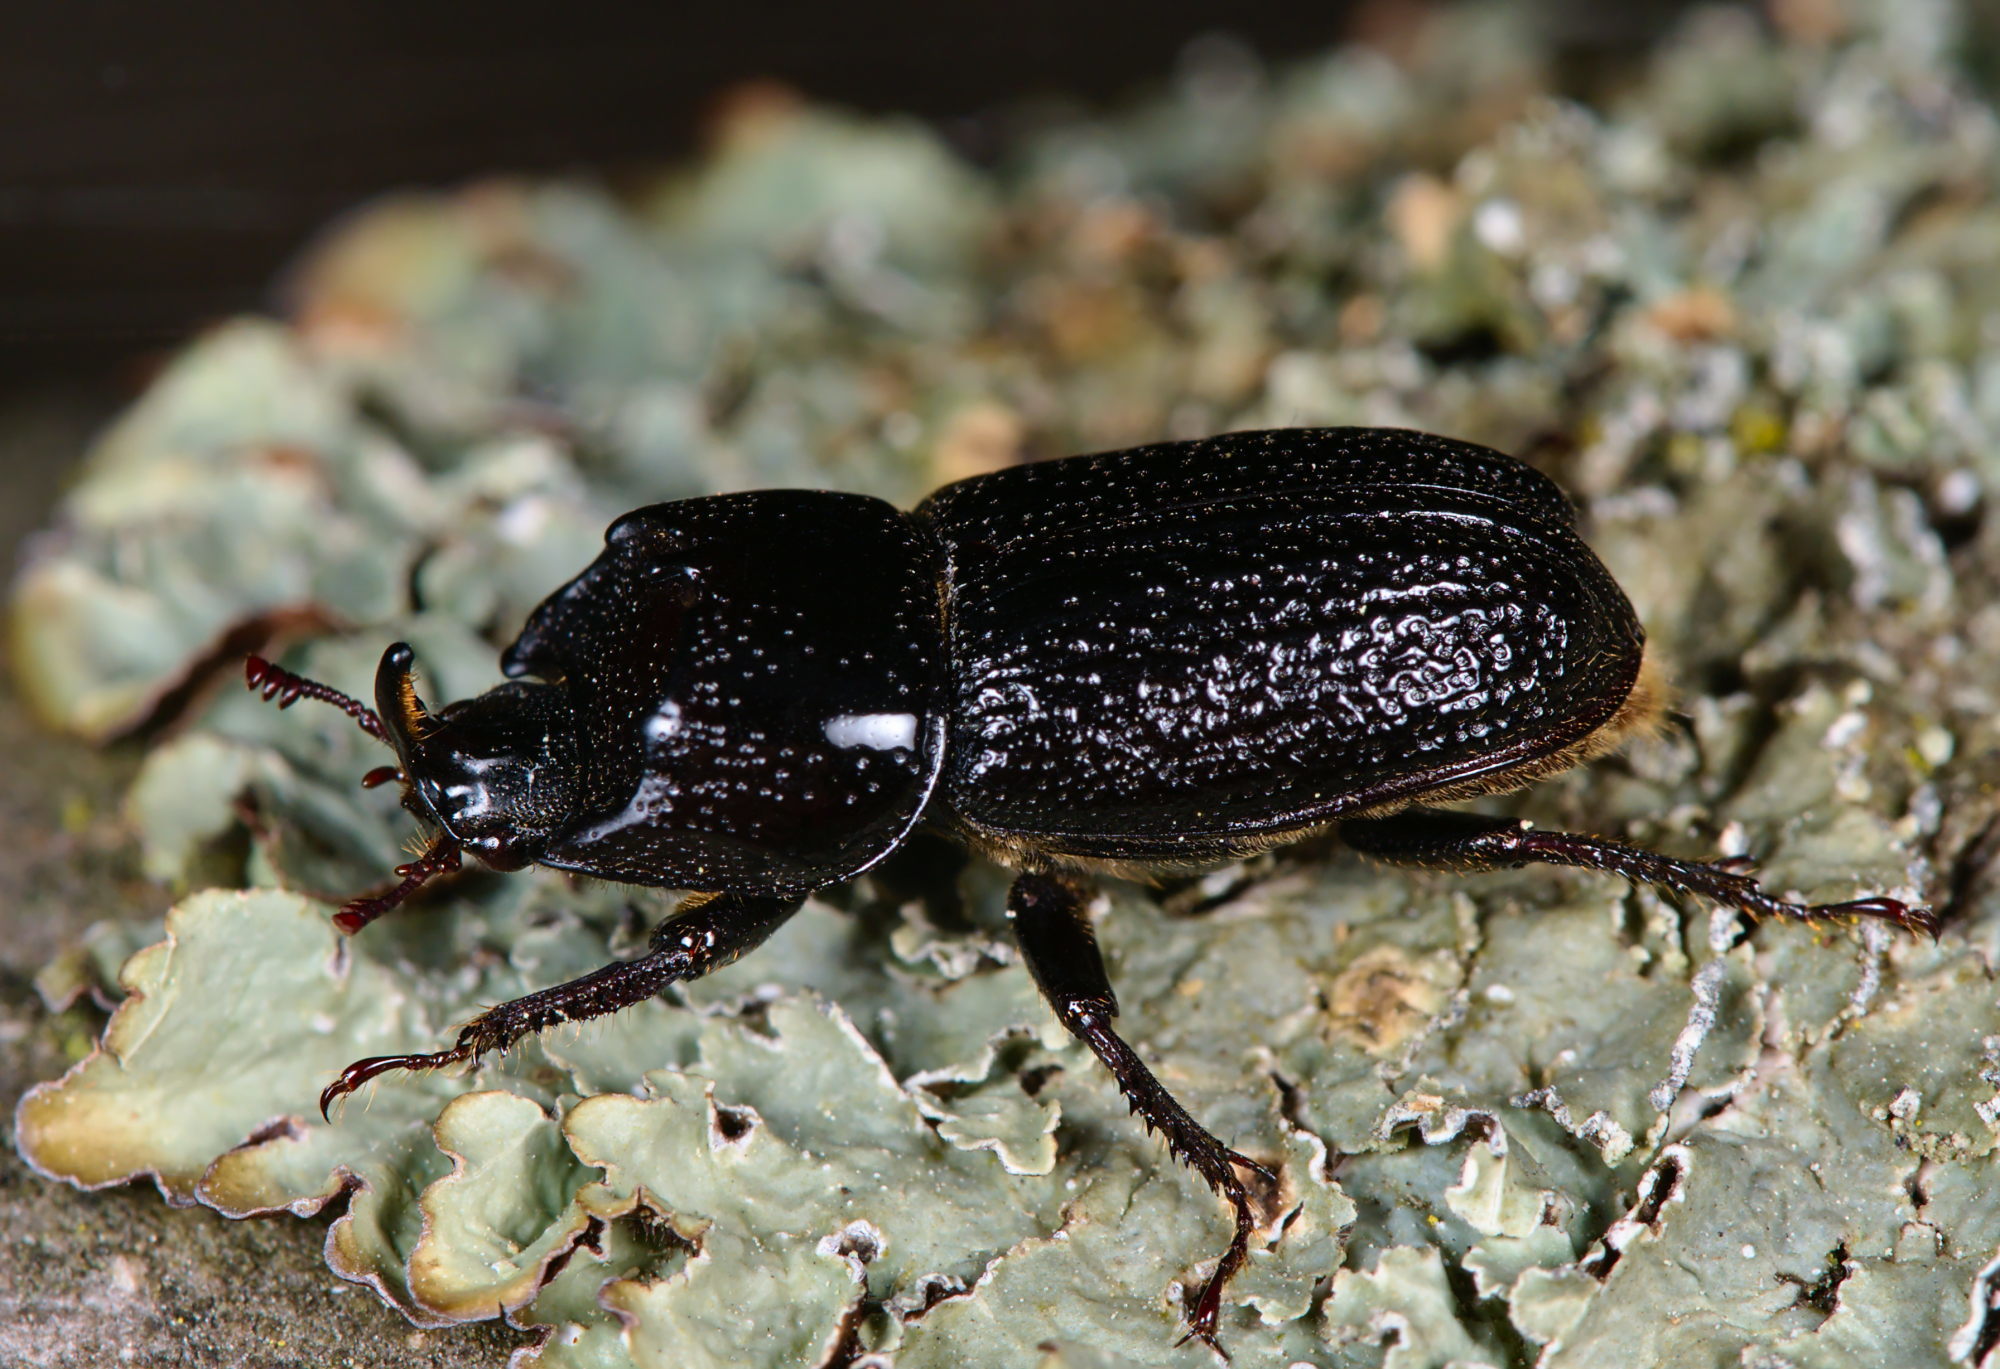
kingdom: Animalia
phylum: Arthropoda
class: Insecta
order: Coleoptera
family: Lucanidae
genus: Sinodendron
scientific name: Sinodendron cylindricum
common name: Rhinoceros beetle
